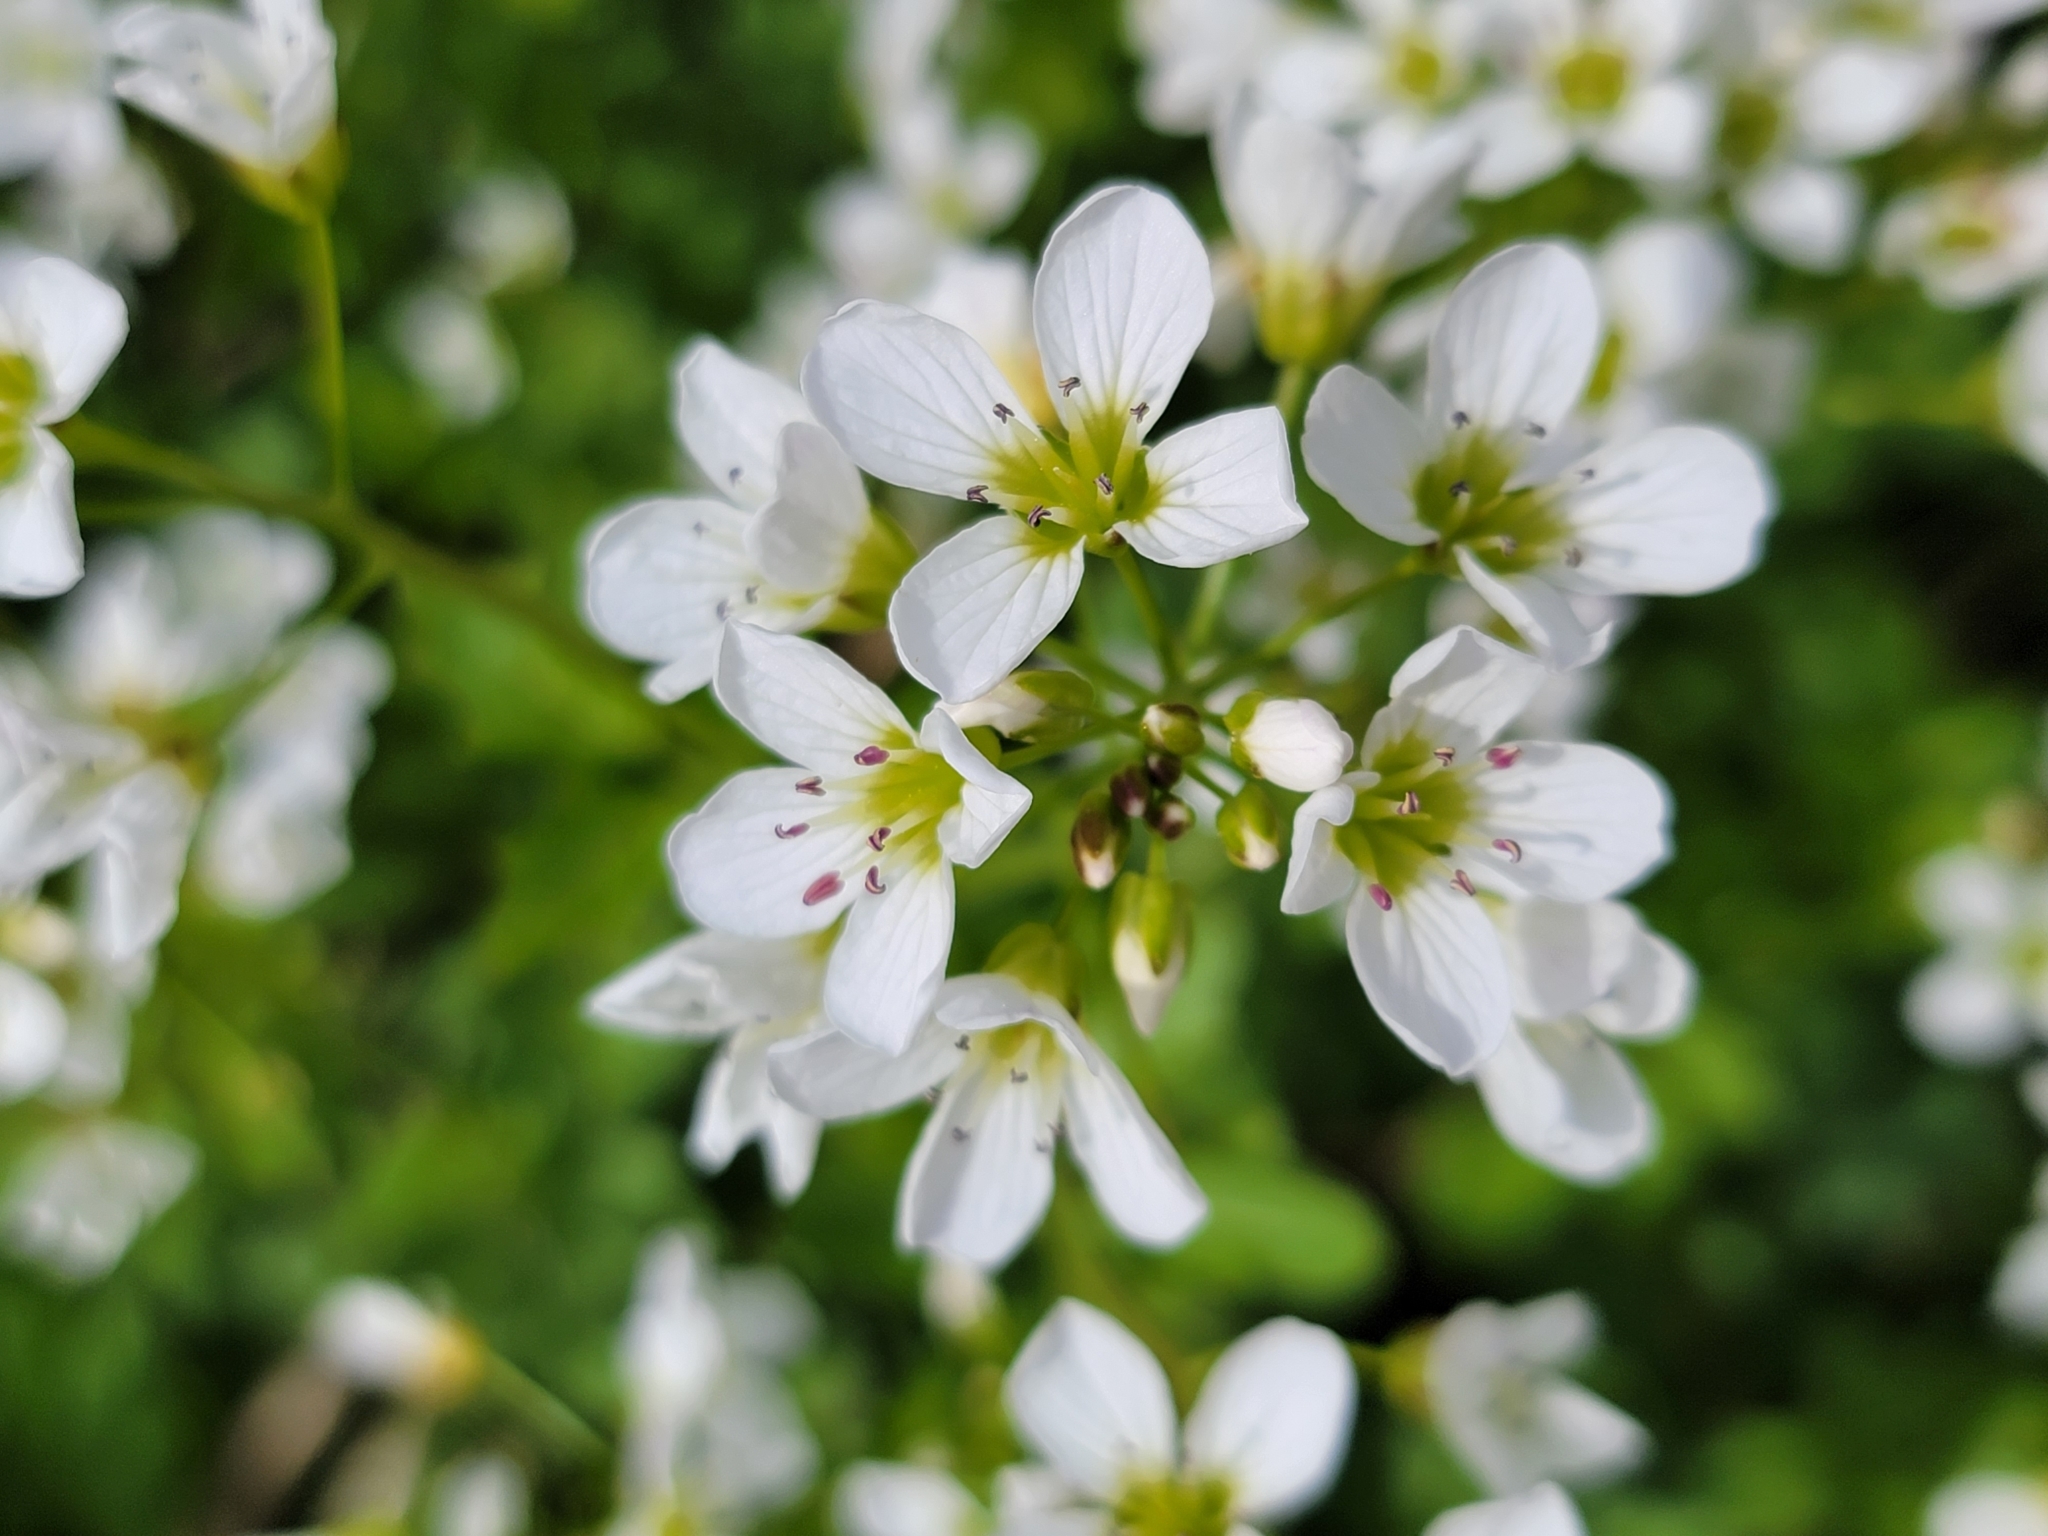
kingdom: Plantae
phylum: Tracheophyta
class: Magnoliopsida
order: Brassicales
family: Brassicaceae
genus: Cardamine
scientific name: Cardamine amara
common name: Large bitter-cress
